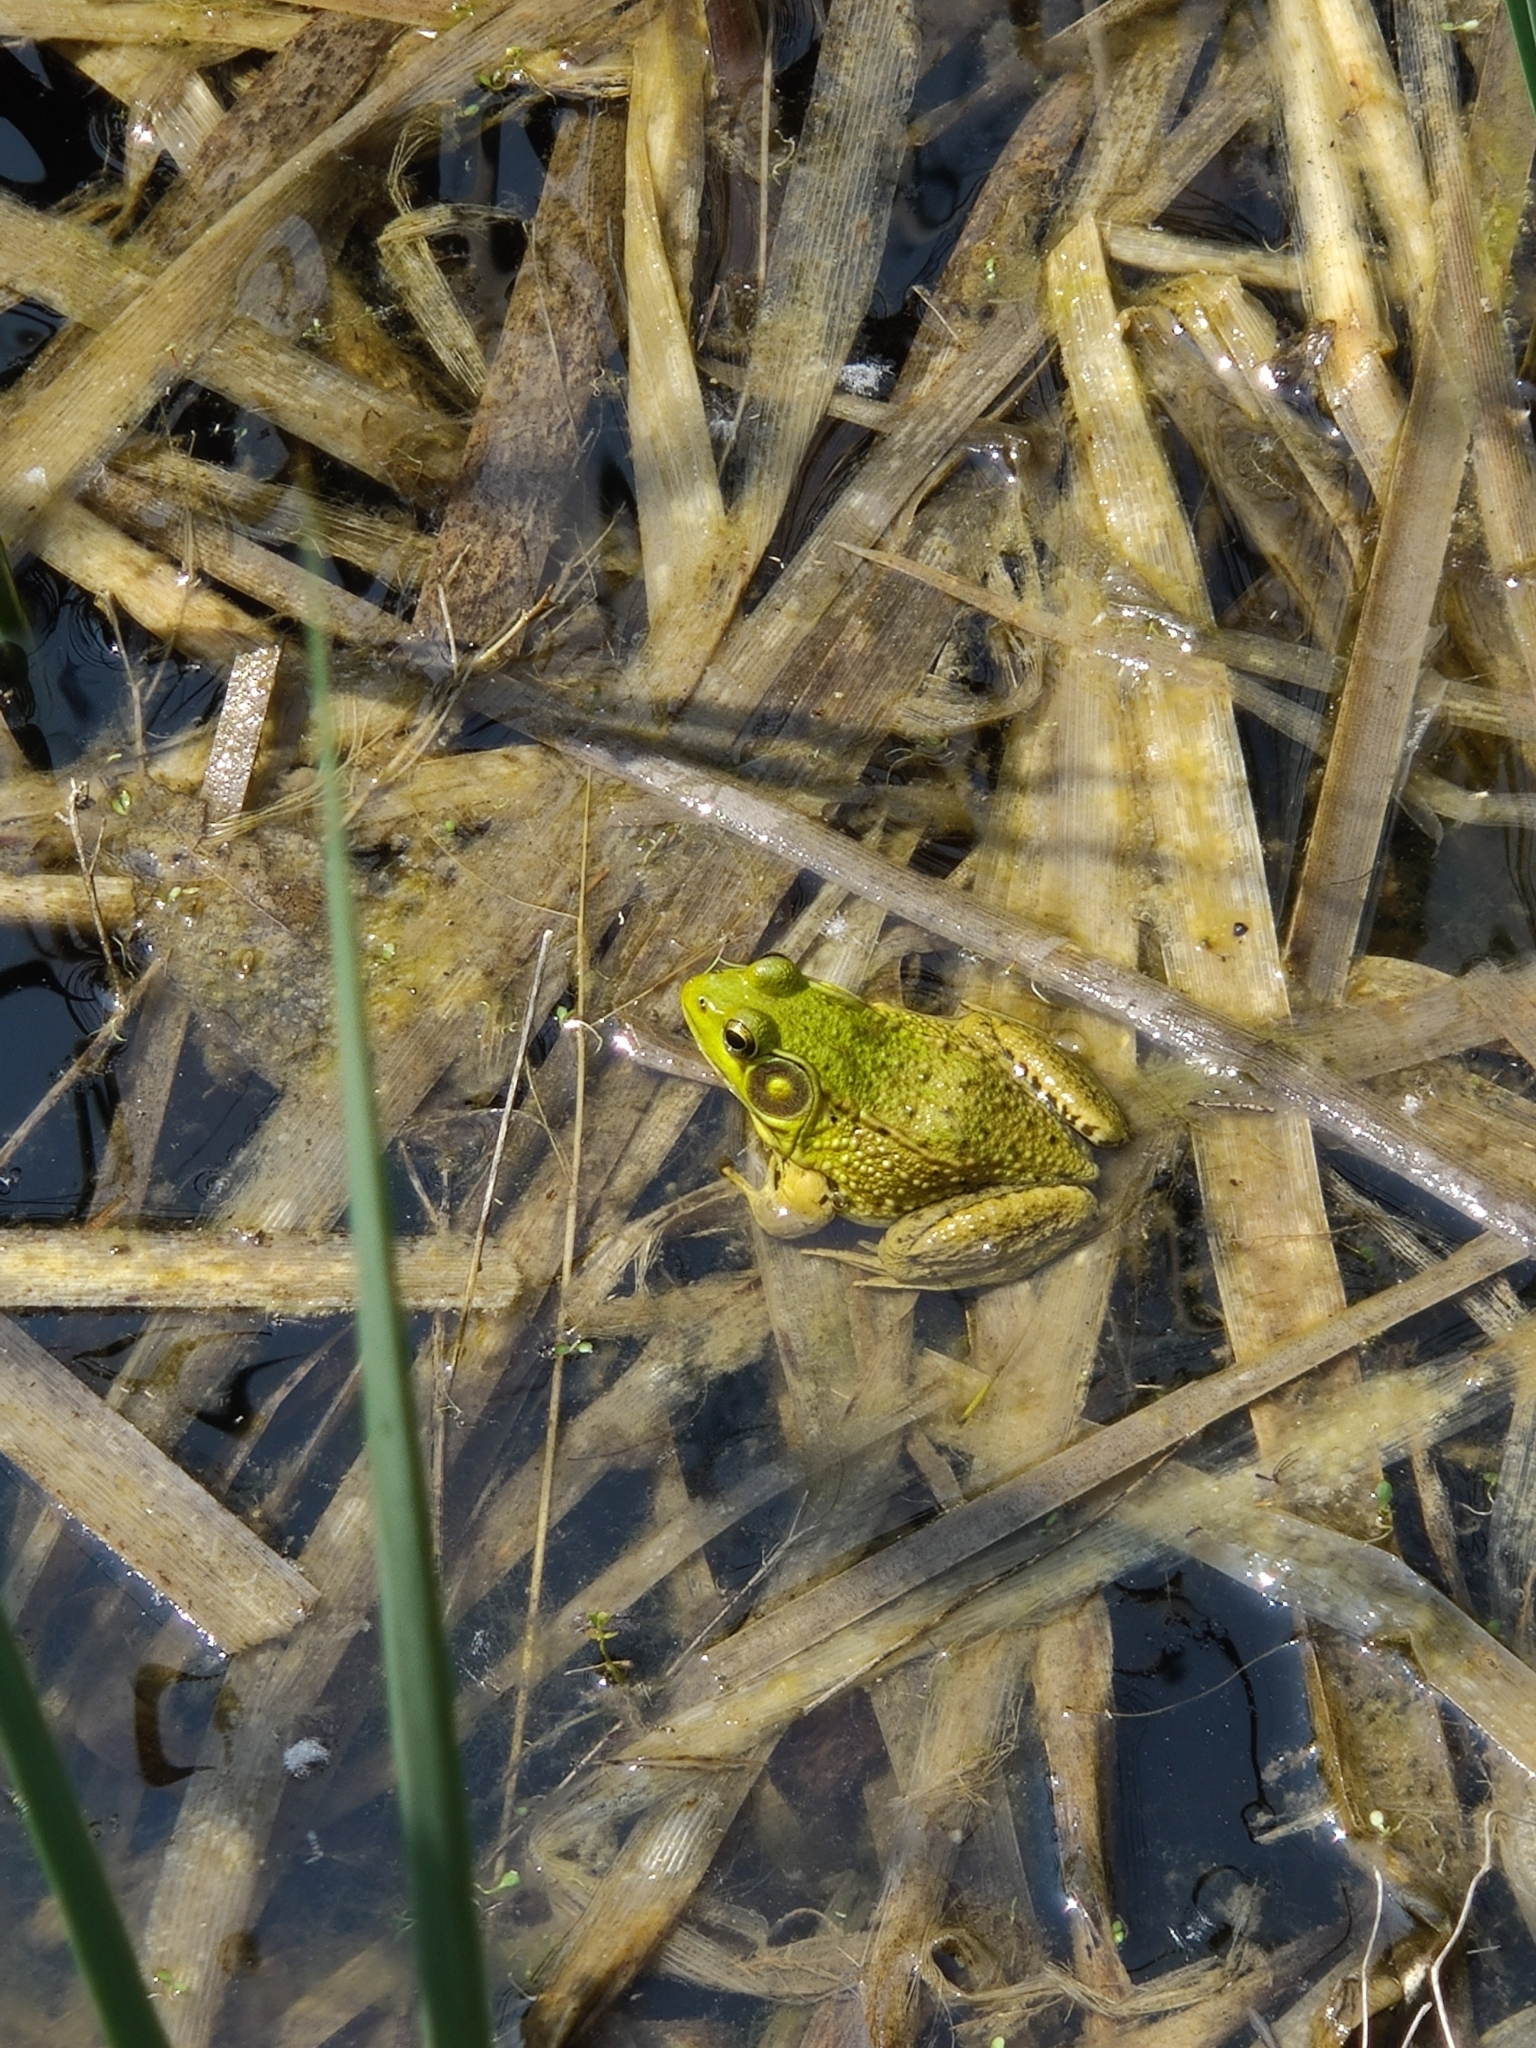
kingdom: Animalia
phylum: Chordata
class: Amphibia
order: Anura
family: Ranidae
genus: Lithobates
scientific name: Lithobates clamitans
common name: Green frog
